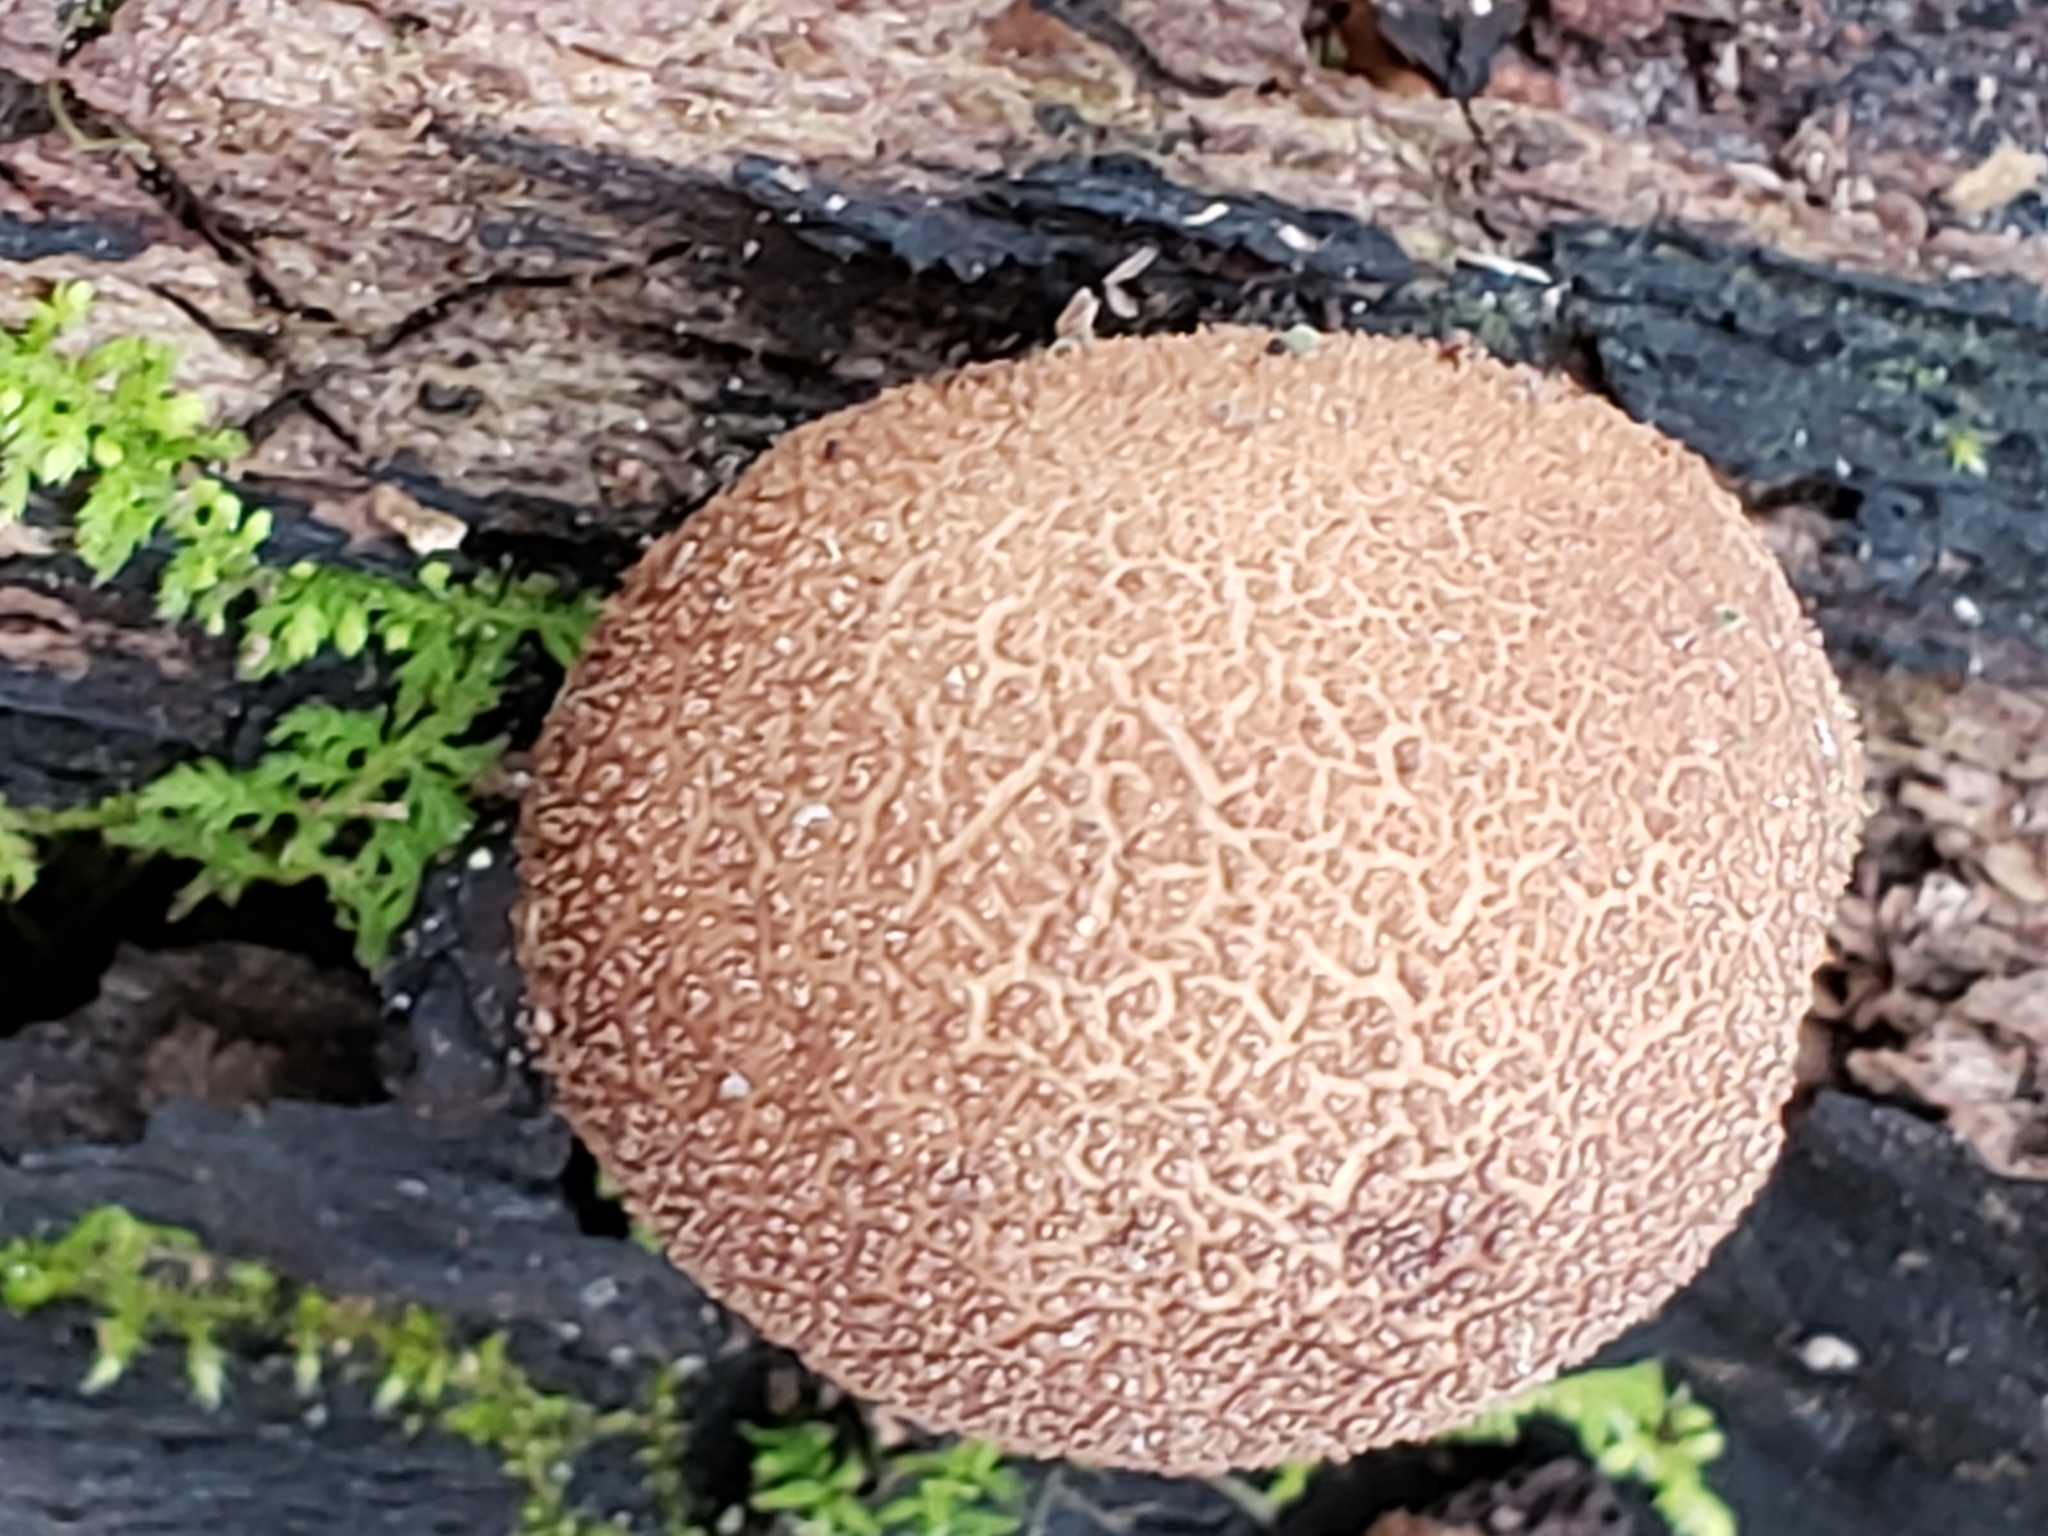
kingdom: Fungi
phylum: Basidiomycota
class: Agaricomycetes
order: Agaricales
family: Lycoperdaceae
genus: Apioperdon
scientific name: Apioperdon pyriforme
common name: Pear-shaped puffball
